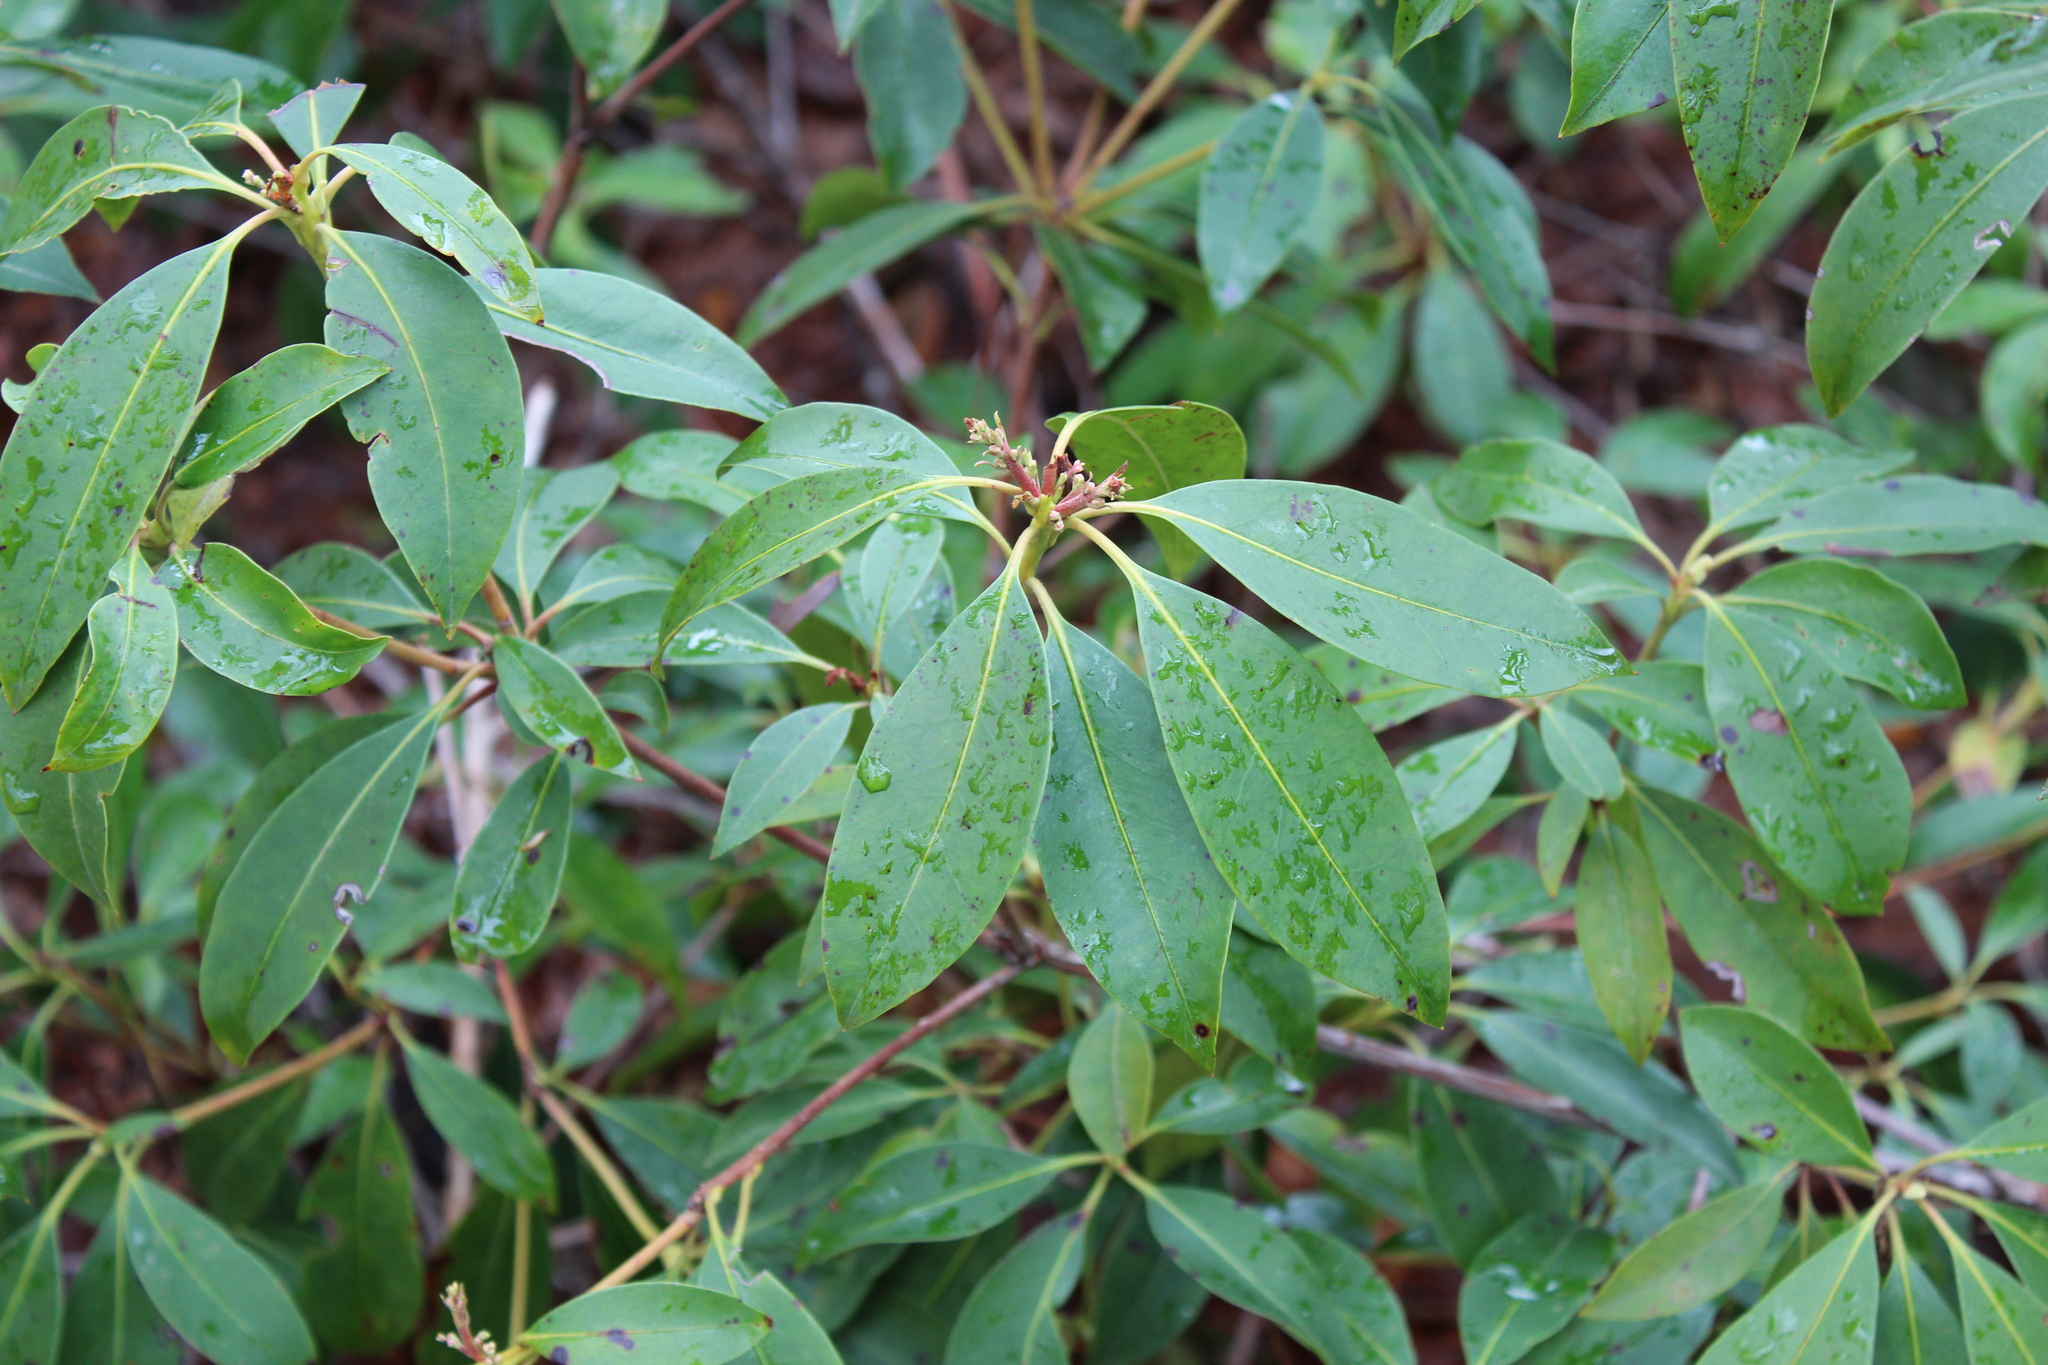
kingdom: Plantae
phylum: Tracheophyta
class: Magnoliopsida
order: Ericales
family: Ericaceae
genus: Kalmia
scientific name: Kalmia latifolia
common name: Mountain-laurel
